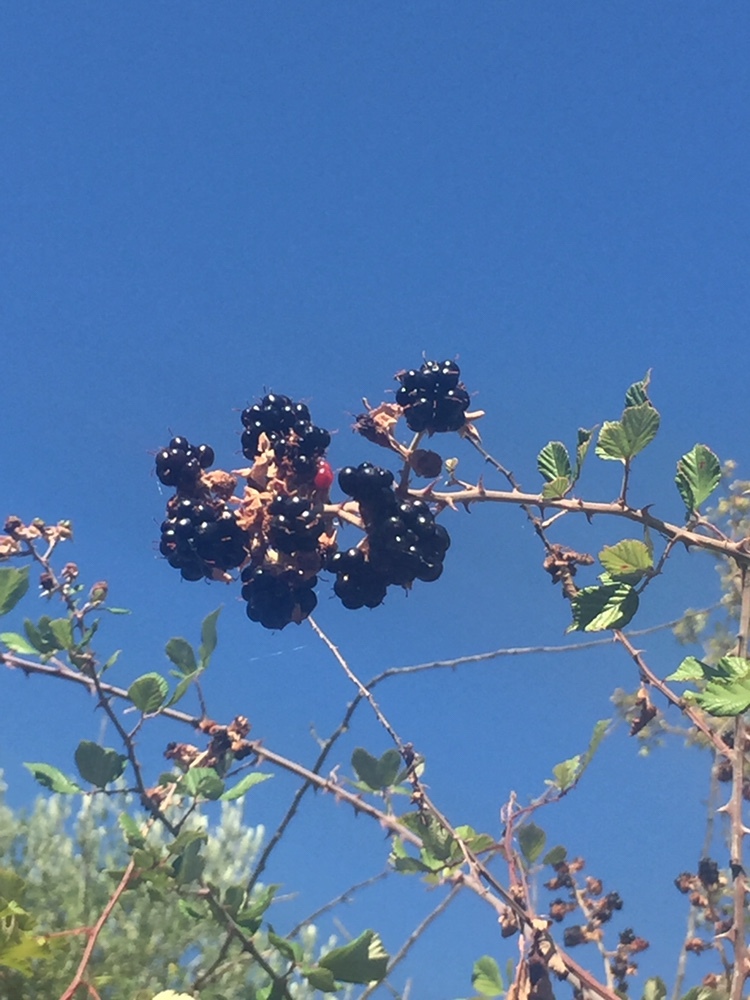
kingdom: Plantae
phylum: Tracheophyta
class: Magnoliopsida
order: Rosales
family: Rosaceae
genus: Rubus
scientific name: Rubus sanctus
